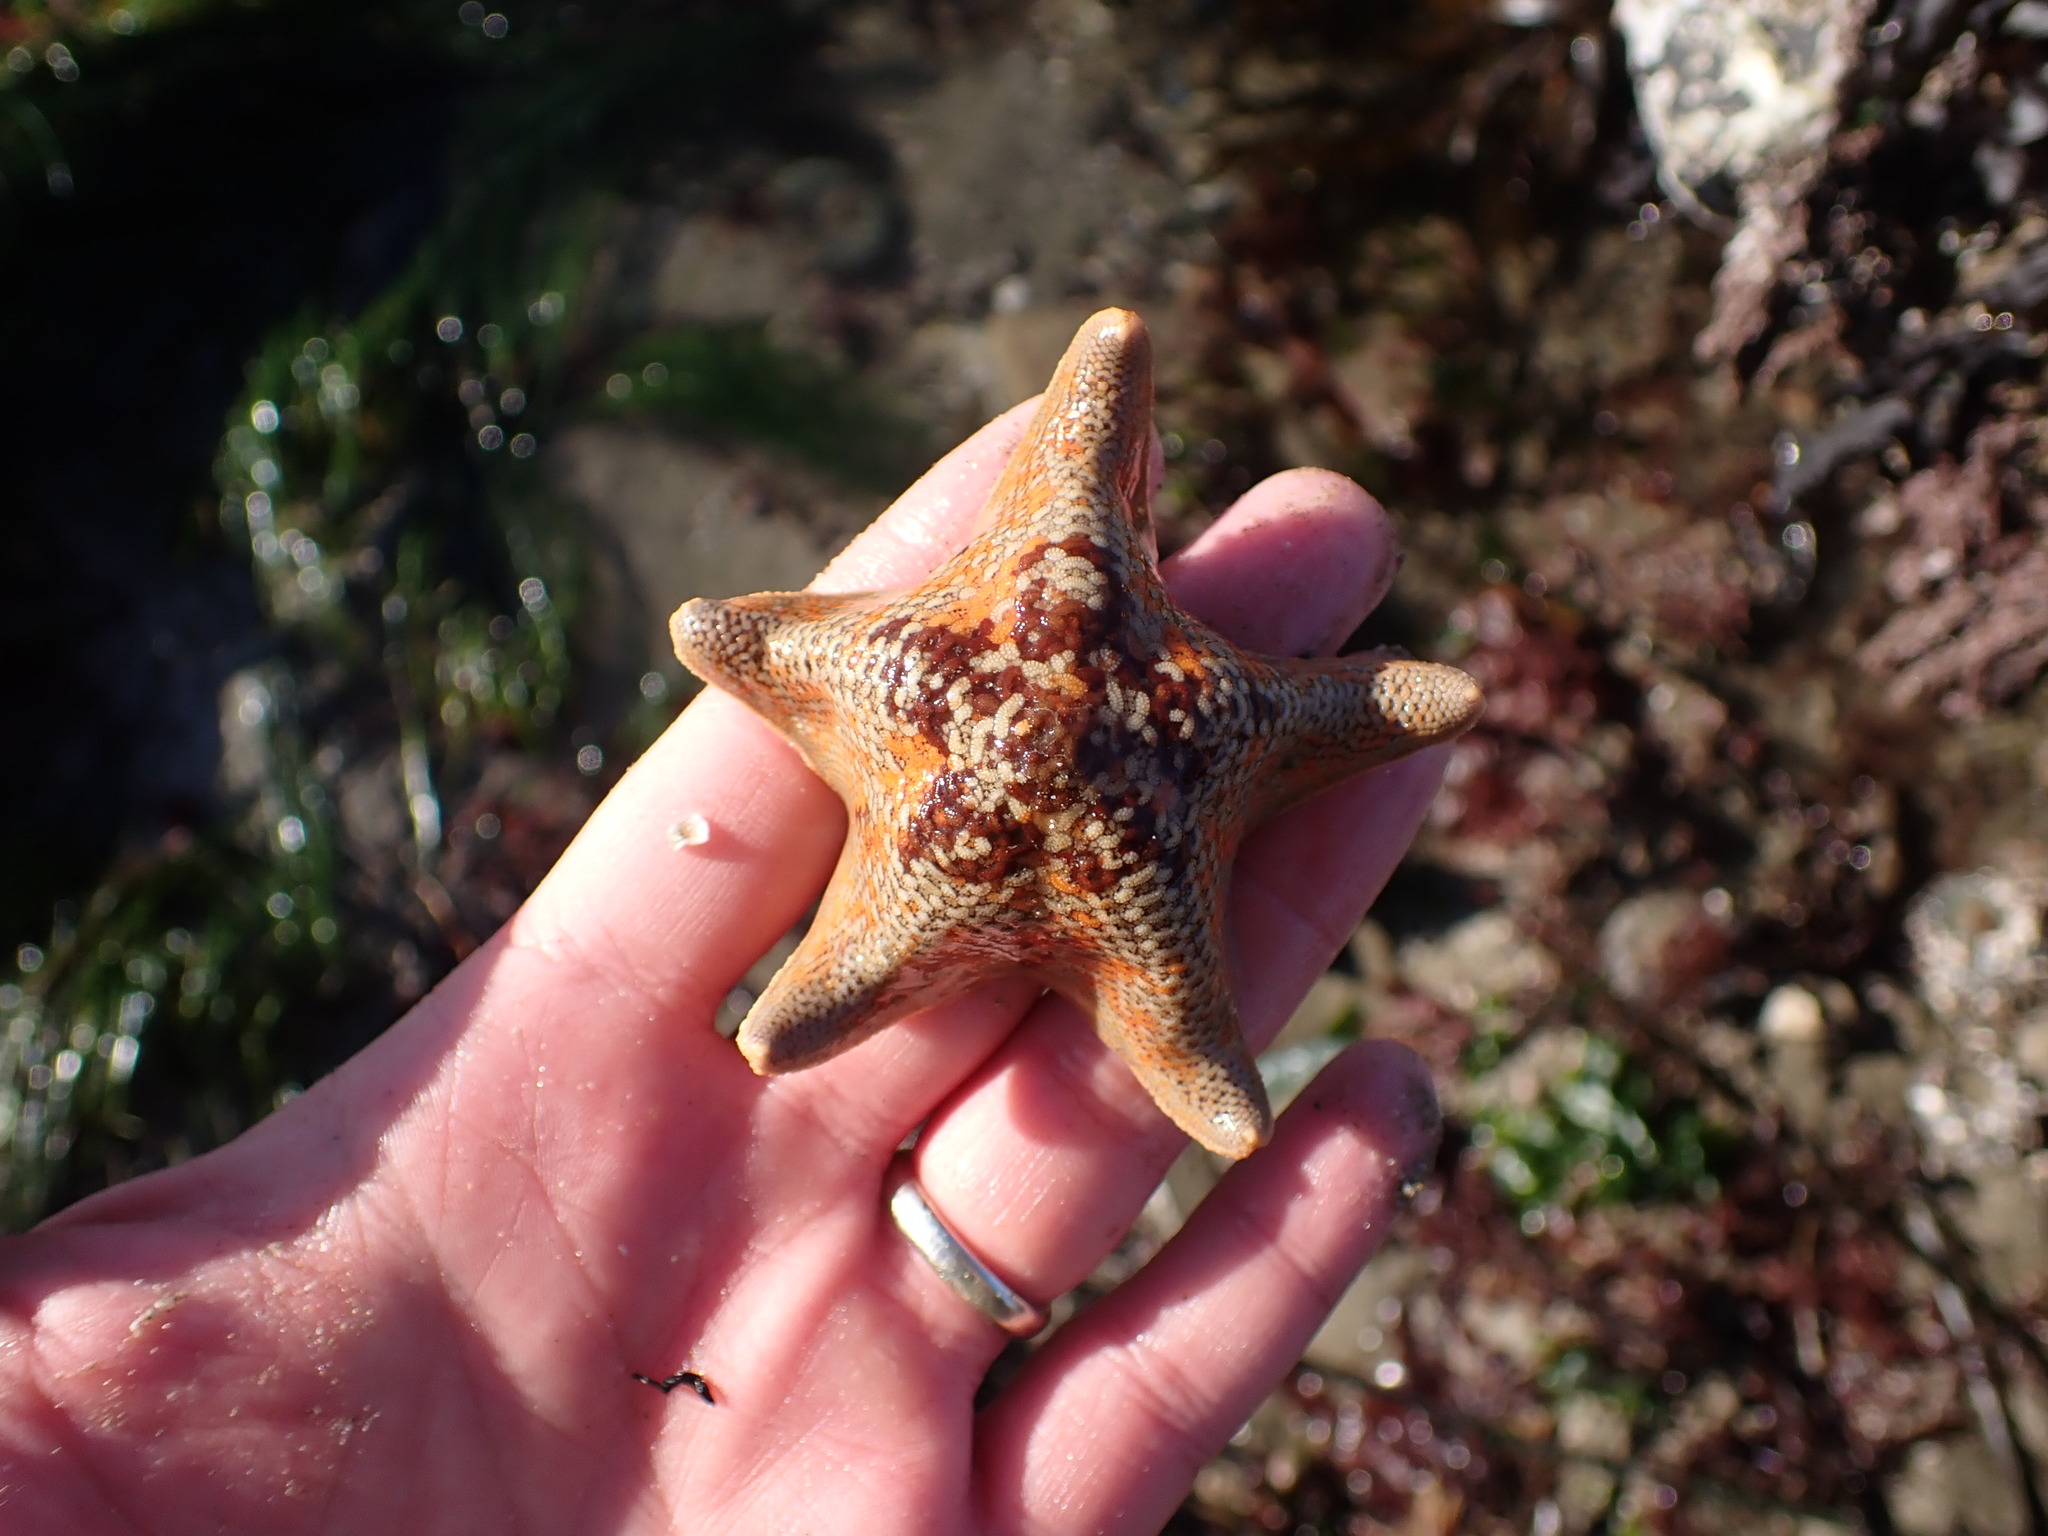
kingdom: Animalia
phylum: Echinodermata
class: Asteroidea
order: Valvatida
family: Asterinidae
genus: Patiria
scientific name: Patiria miniata
